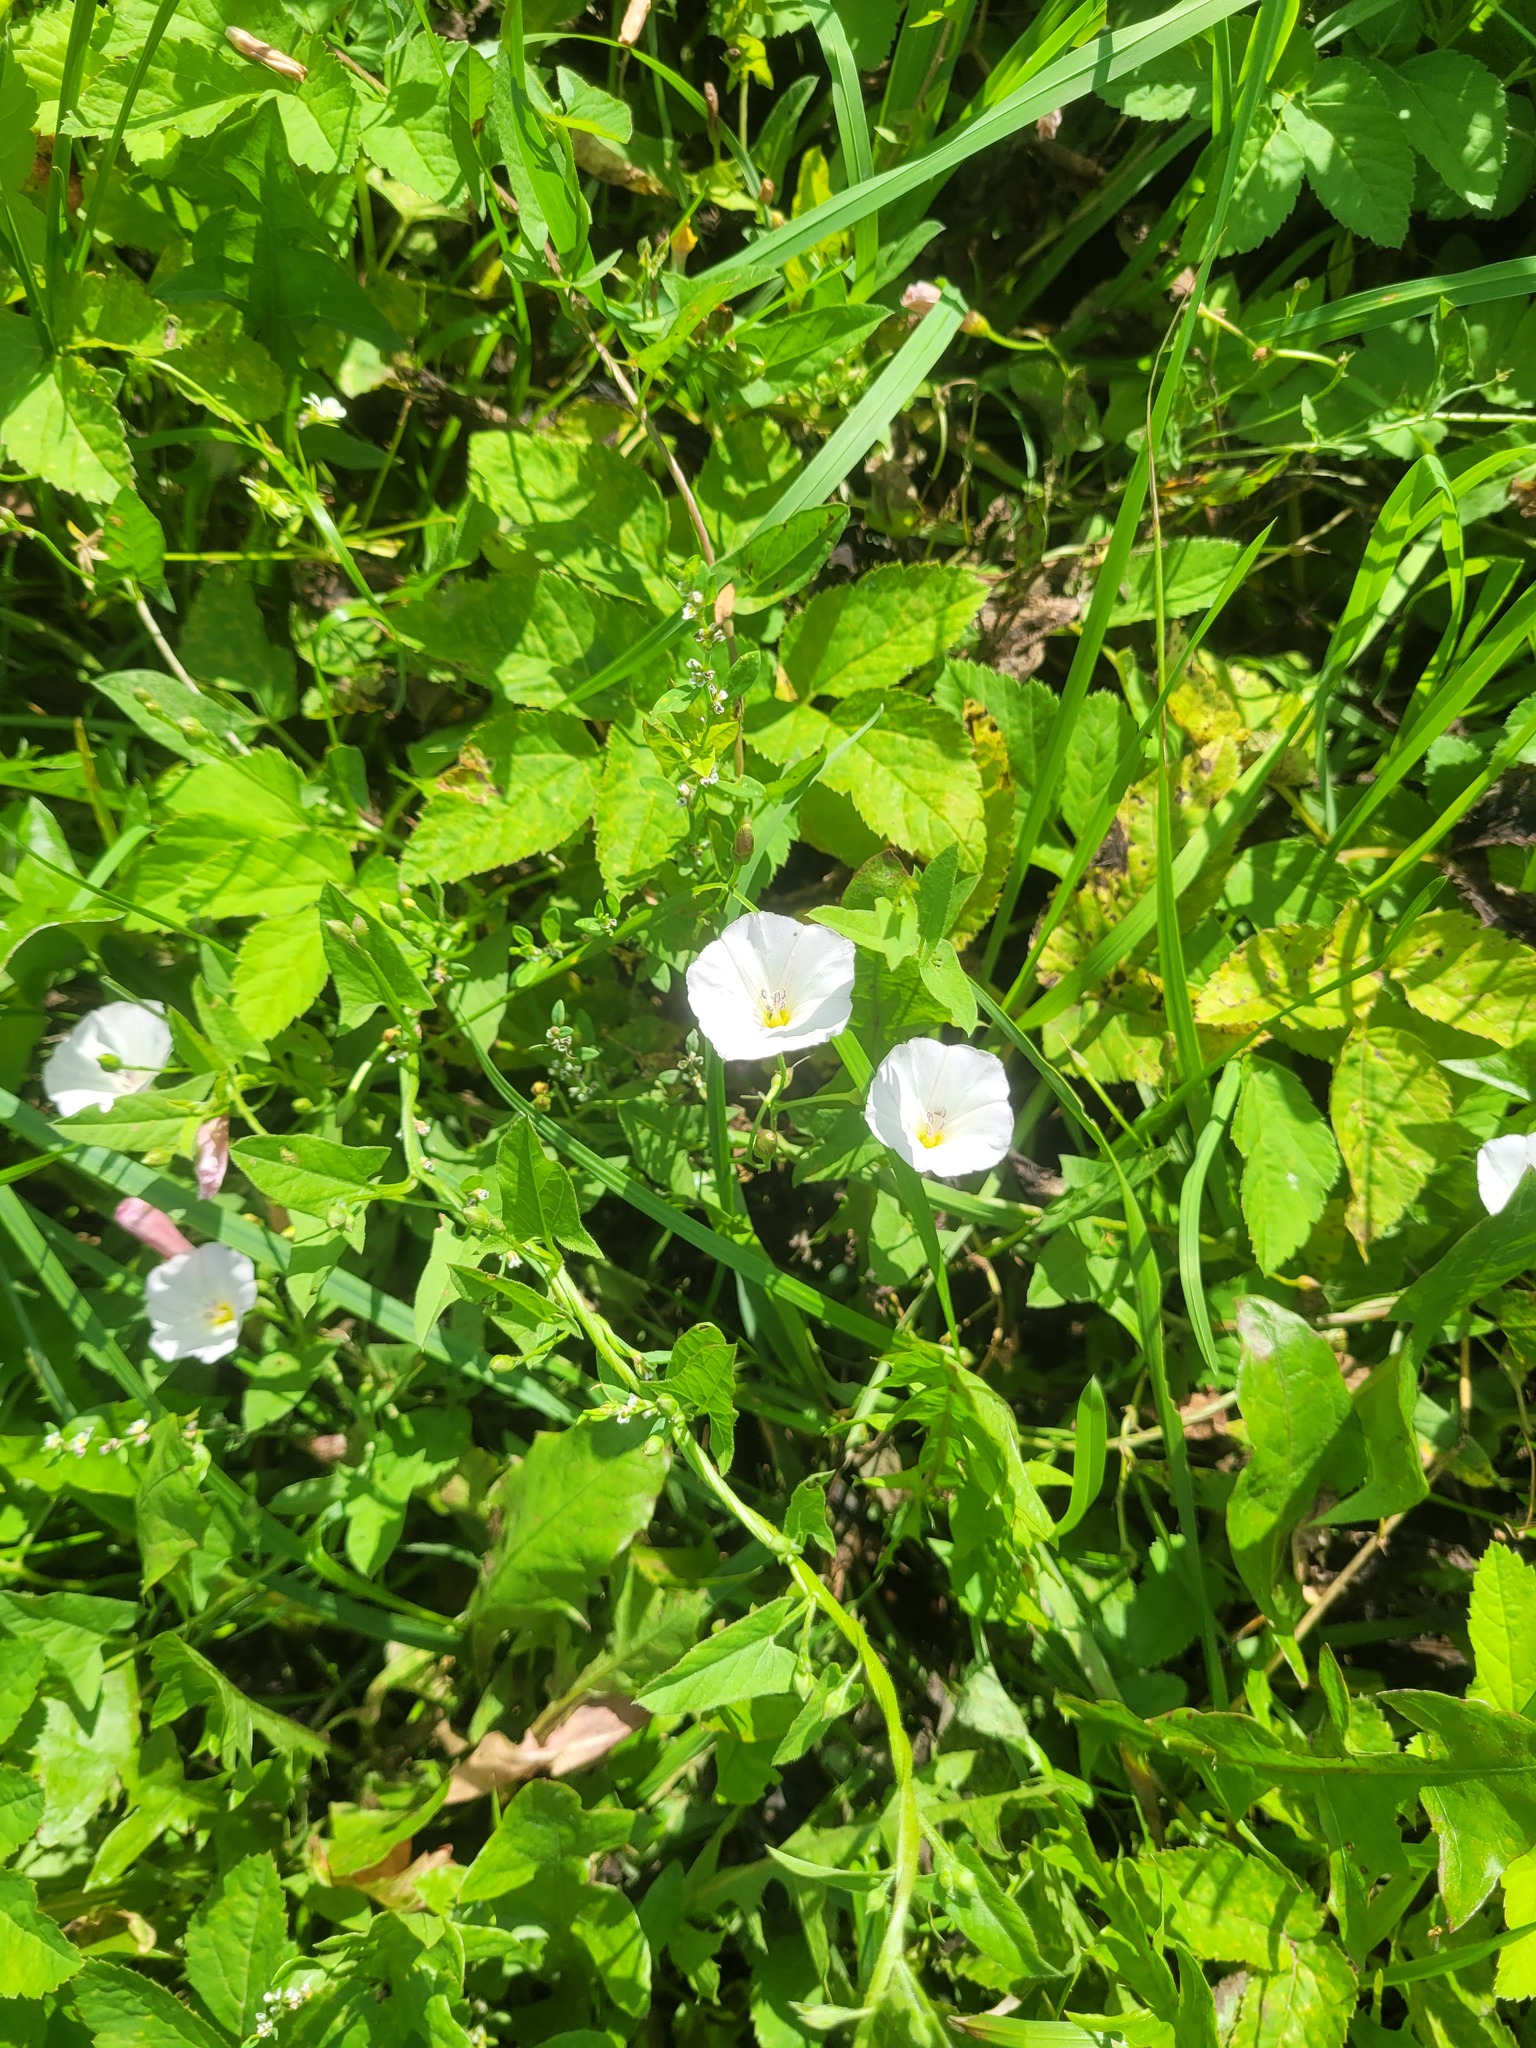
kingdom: Plantae
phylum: Tracheophyta
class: Magnoliopsida
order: Solanales
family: Convolvulaceae
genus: Convolvulus
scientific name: Convolvulus arvensis
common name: Field bindweed
